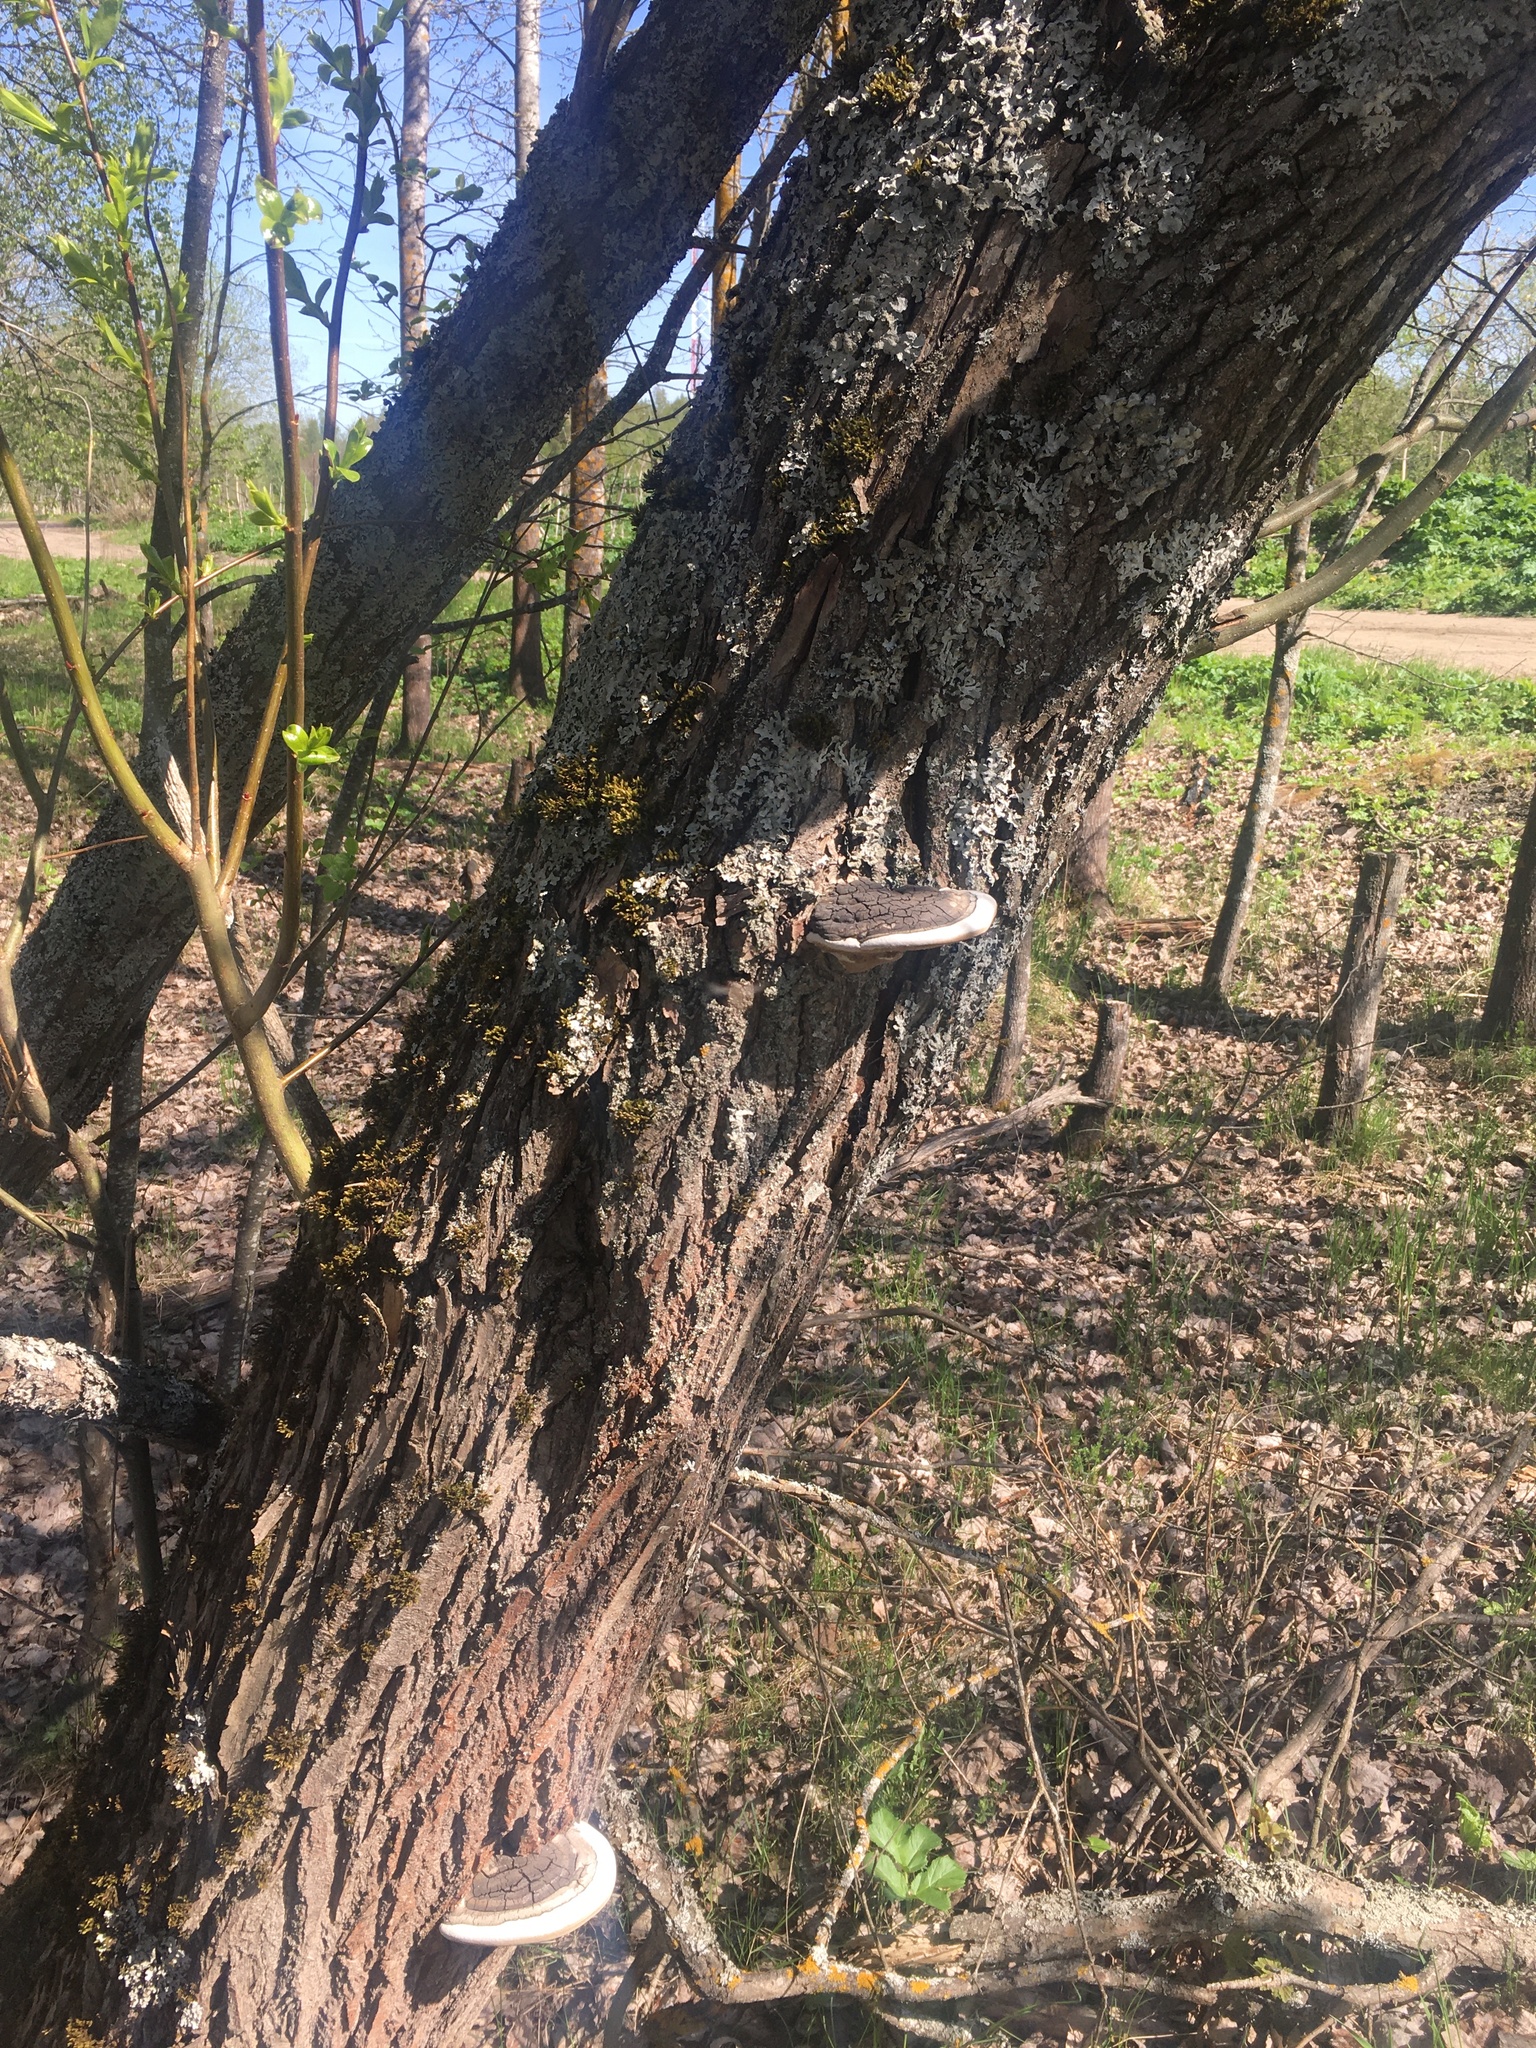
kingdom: Fungi
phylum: Basidiomycota
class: Agaricomycetes
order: Hymenochaetales
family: Hymenochaetaceae
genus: Phellinus
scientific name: Phellinus igniarius
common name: Willow bracket
